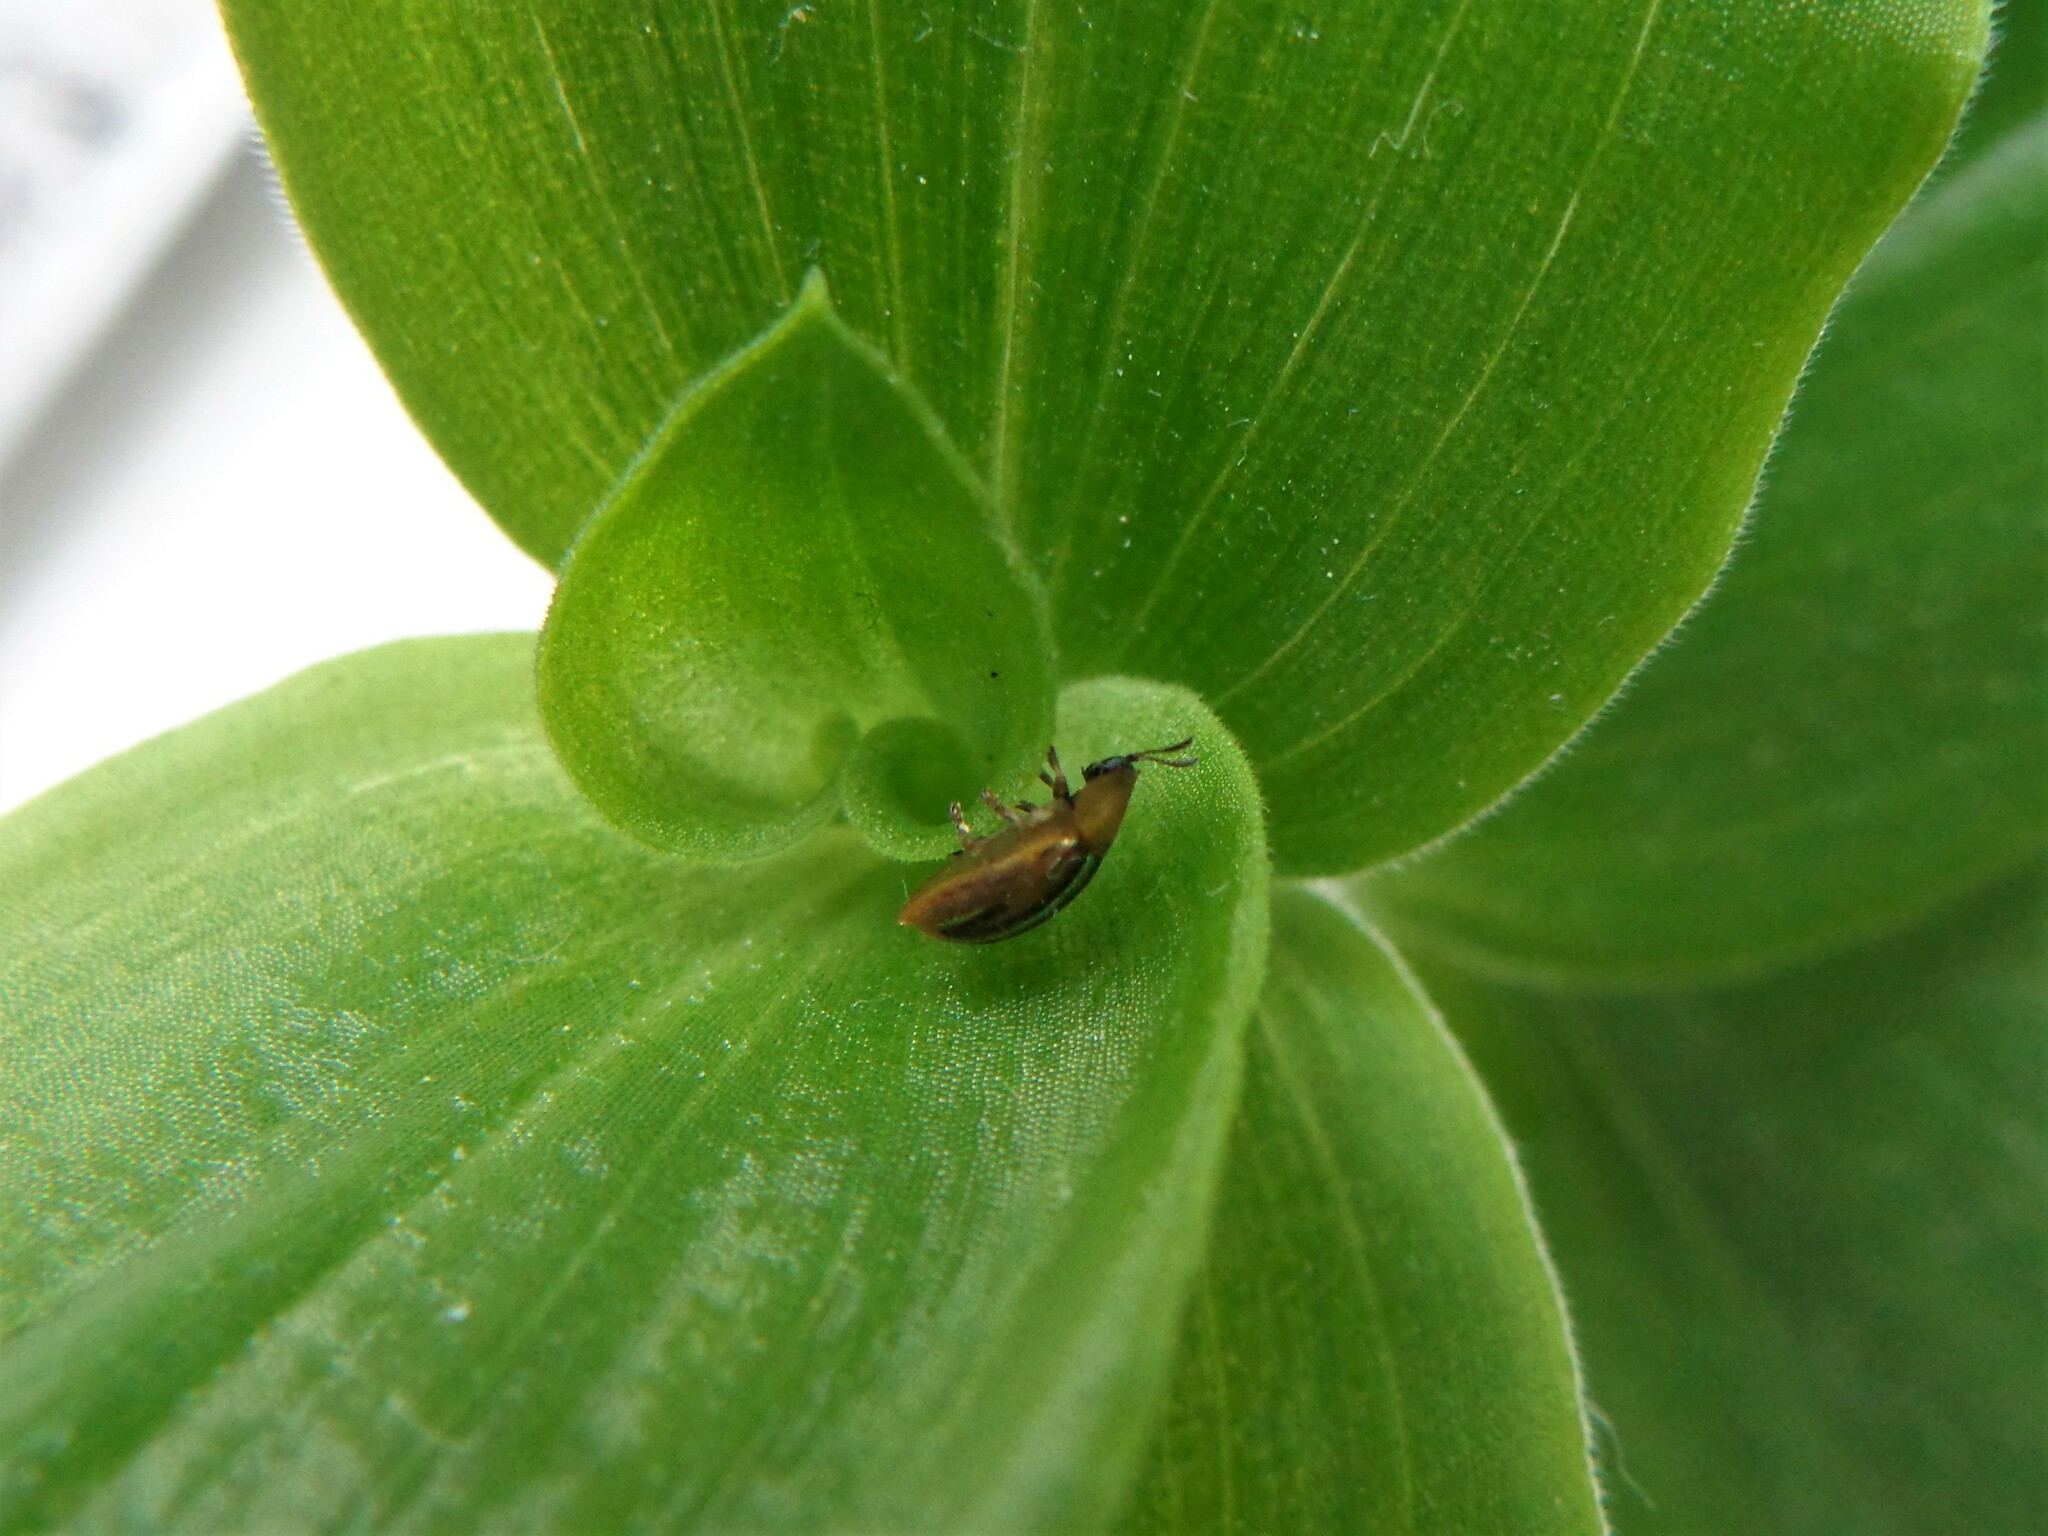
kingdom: Animalia
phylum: Arthropoda
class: Insecta
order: Coleoptera
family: Chrysomelidae
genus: Cassida
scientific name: Cassida nobilis
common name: Leaf beetle
